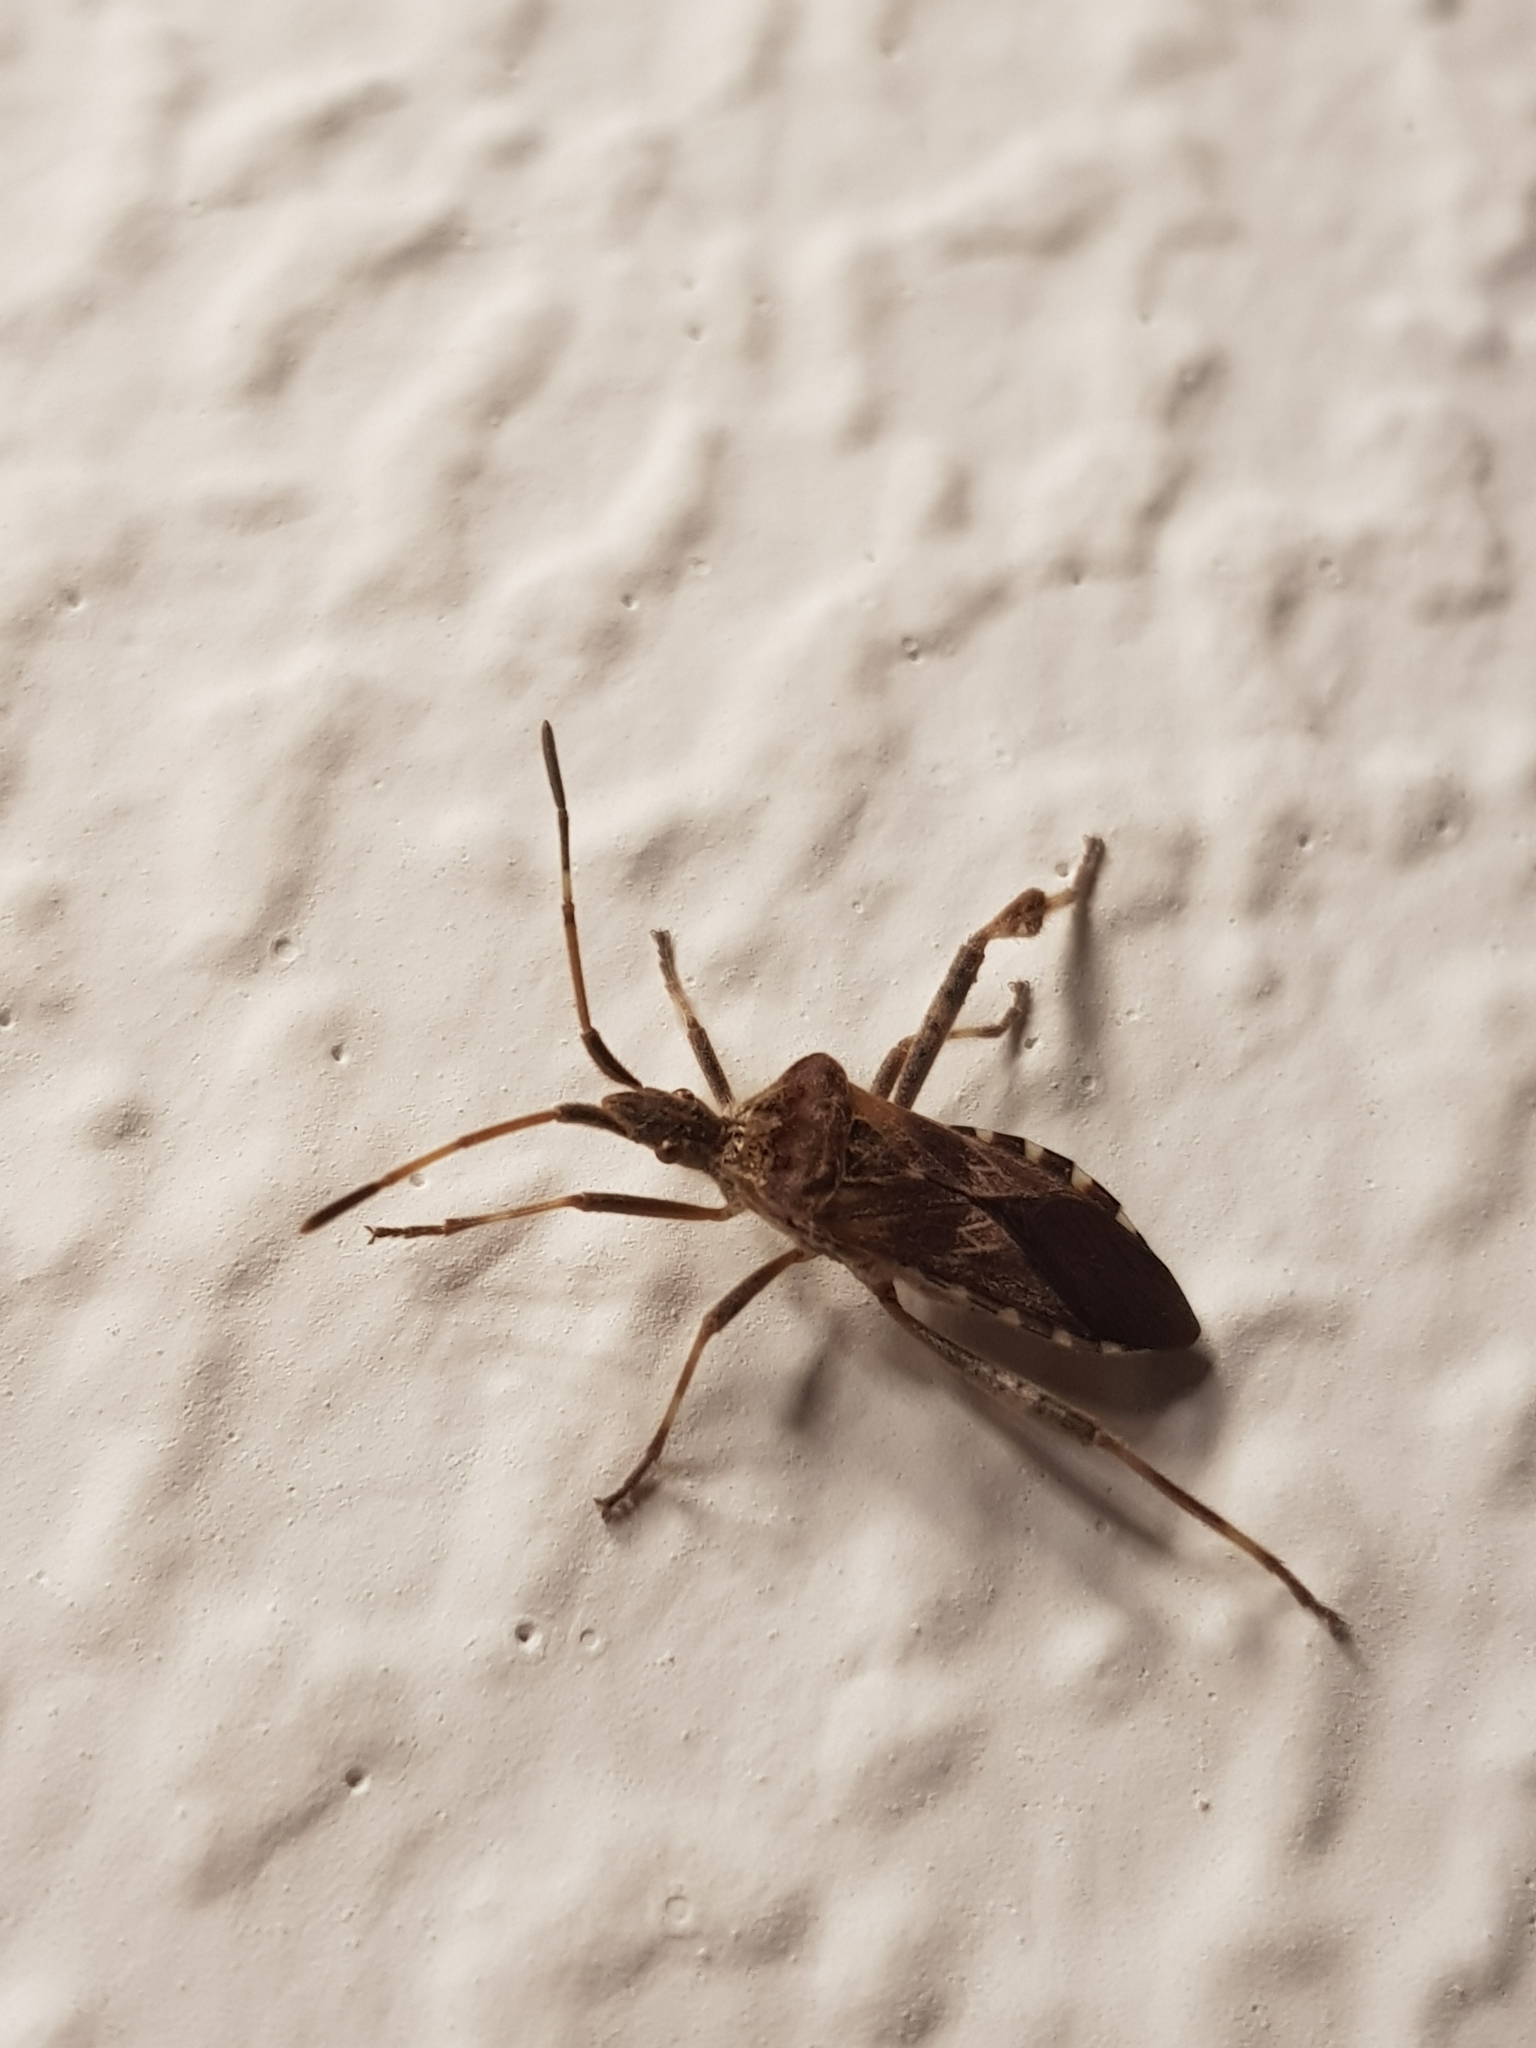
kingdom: Animalia
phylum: Arthropoda
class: Insecta
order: Hemiptera
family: Coreidae
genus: Leptoglossus
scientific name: Leptoglossus occidentalis
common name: Western conifer-seed bug
